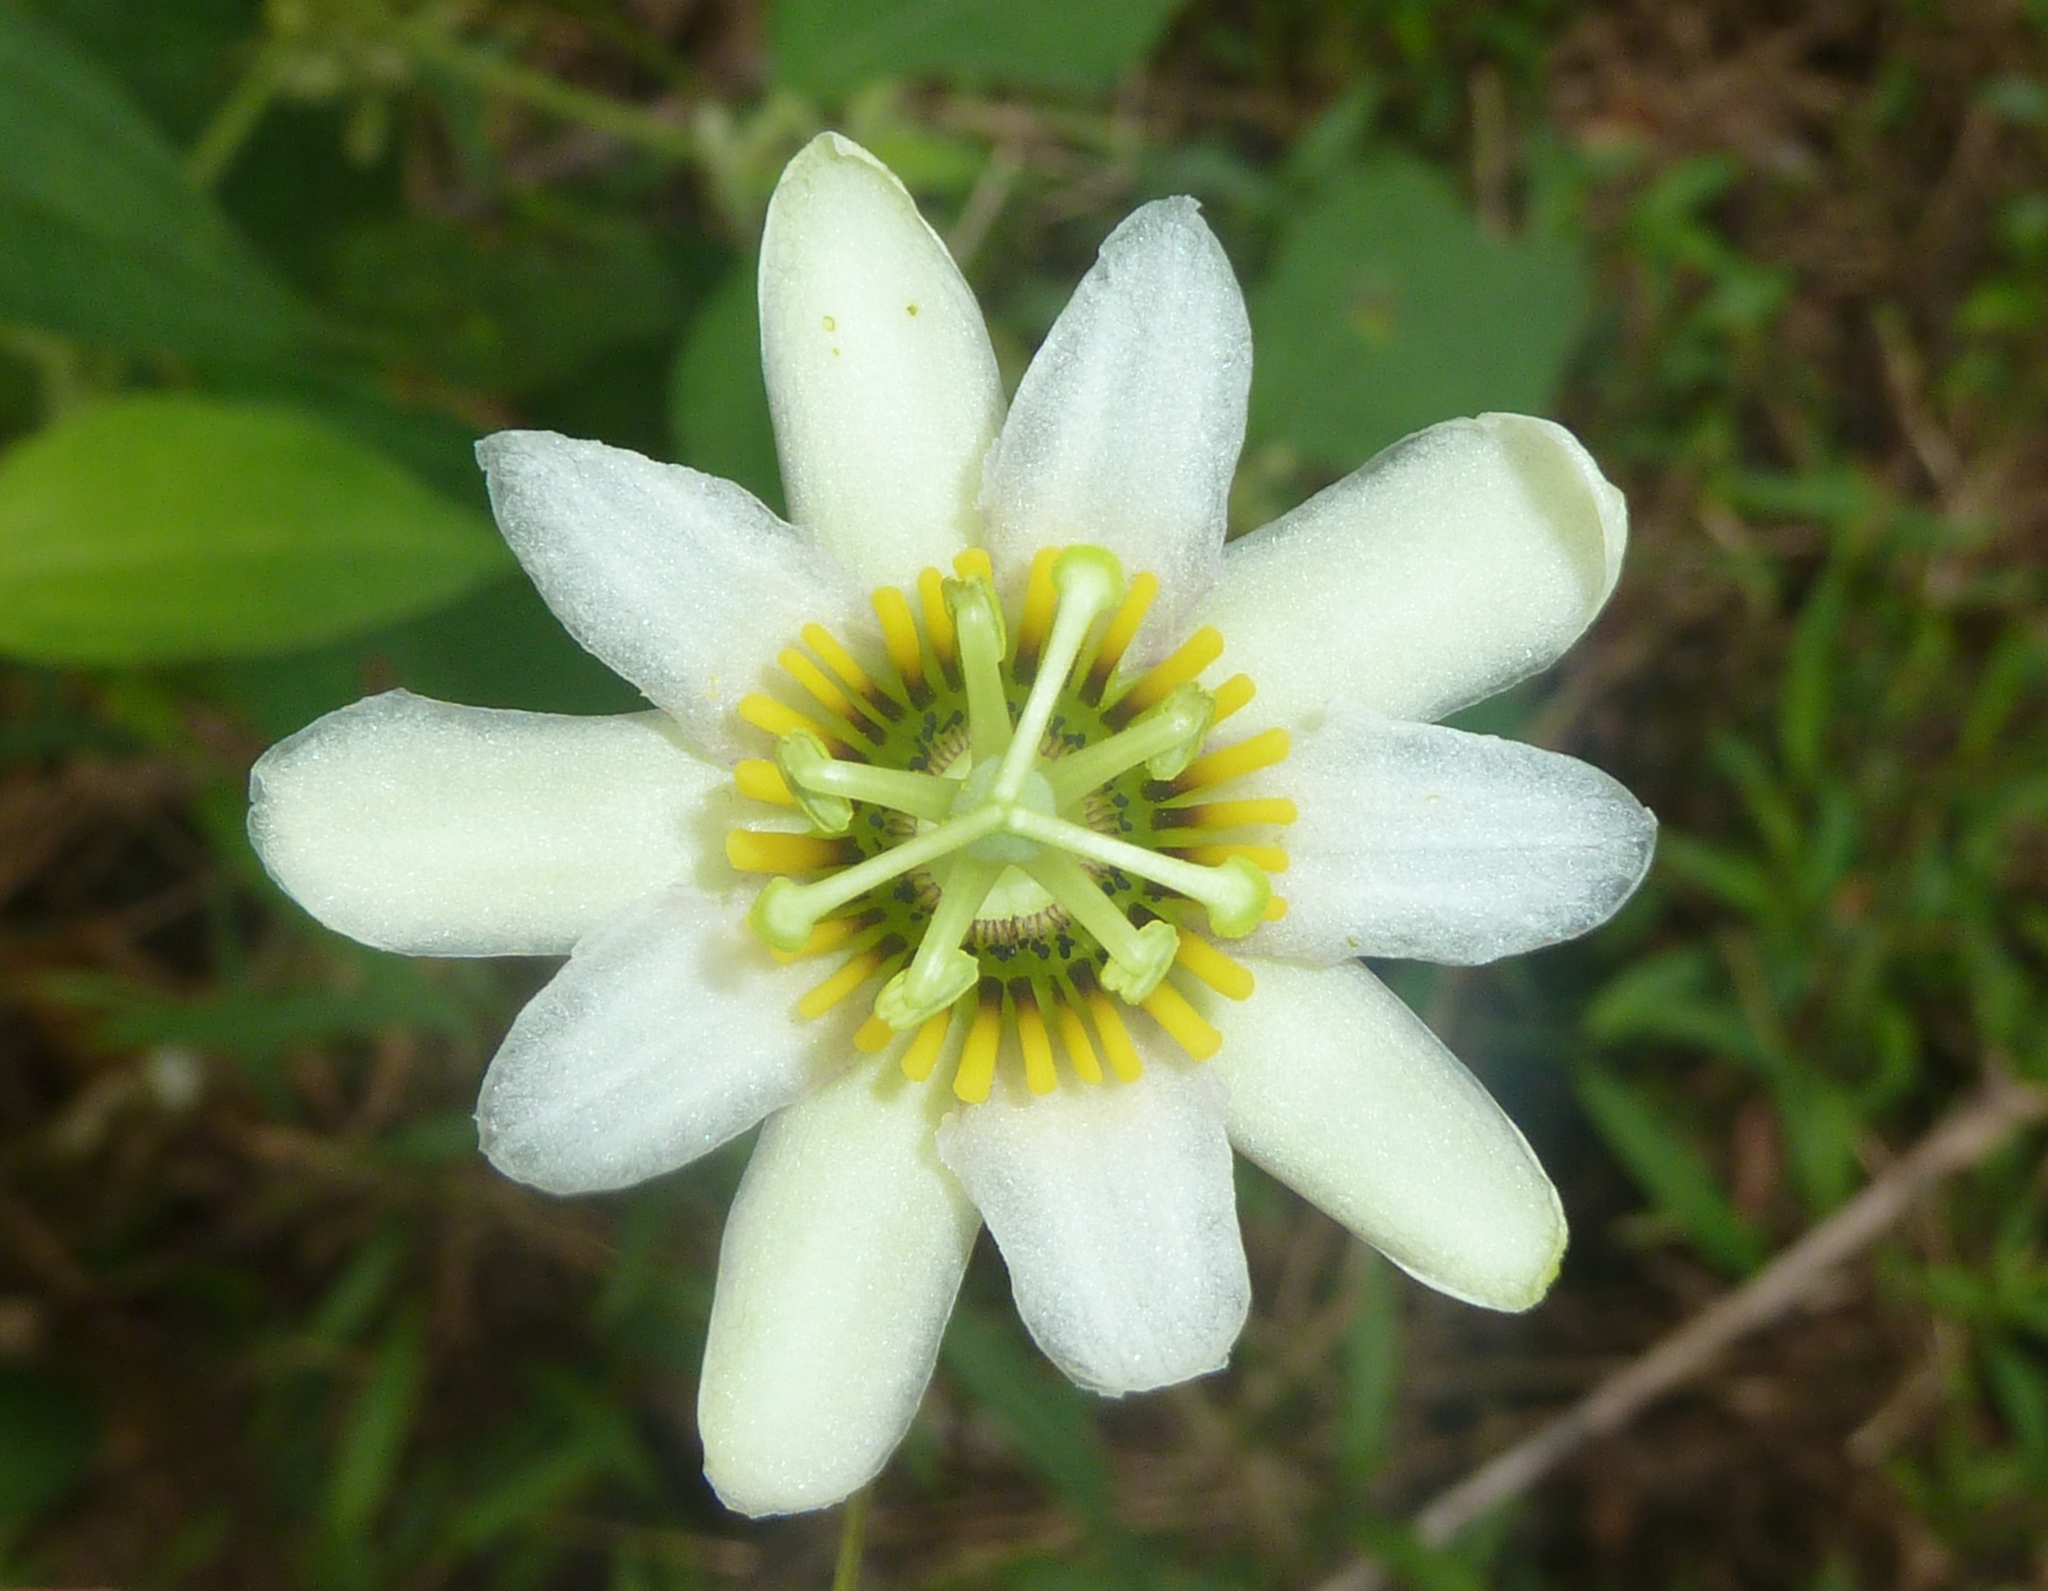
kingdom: Plantae
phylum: Tracheophyta
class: Magnoliopsida
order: Malpighiales
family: Passifloraceae
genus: Passiflora
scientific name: Passiflora talamancensis
